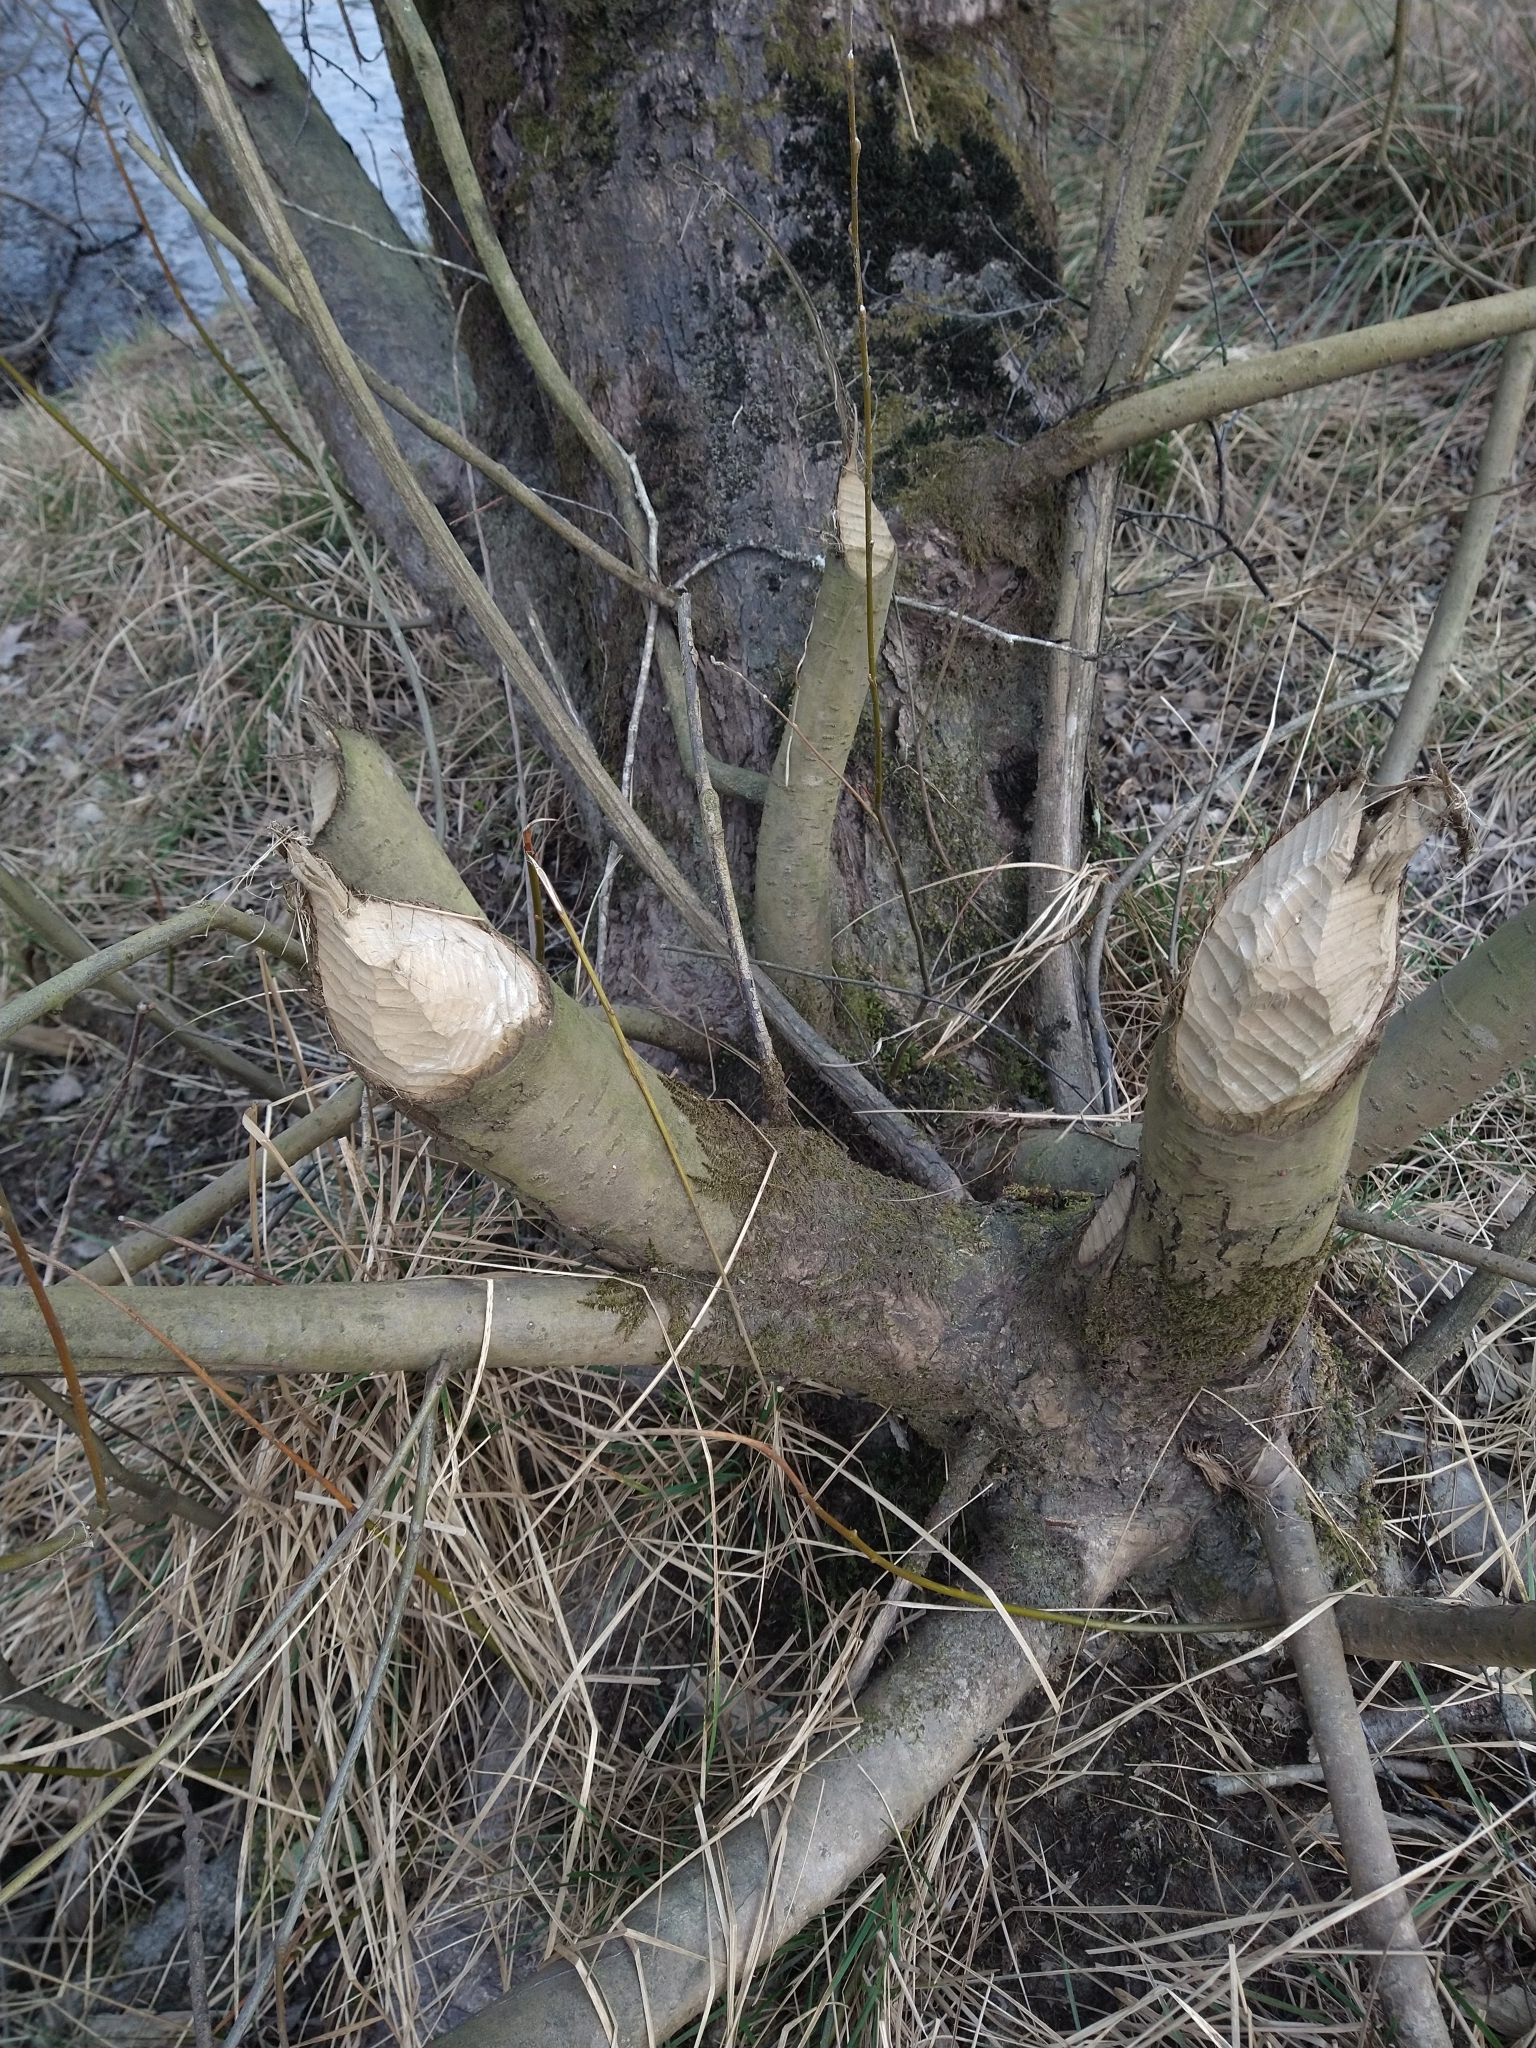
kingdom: Animalia
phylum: Chordata
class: Mammalia
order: Rodentia
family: Castoridae
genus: Castor
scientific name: Castor fiber
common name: Eurasian beaver
